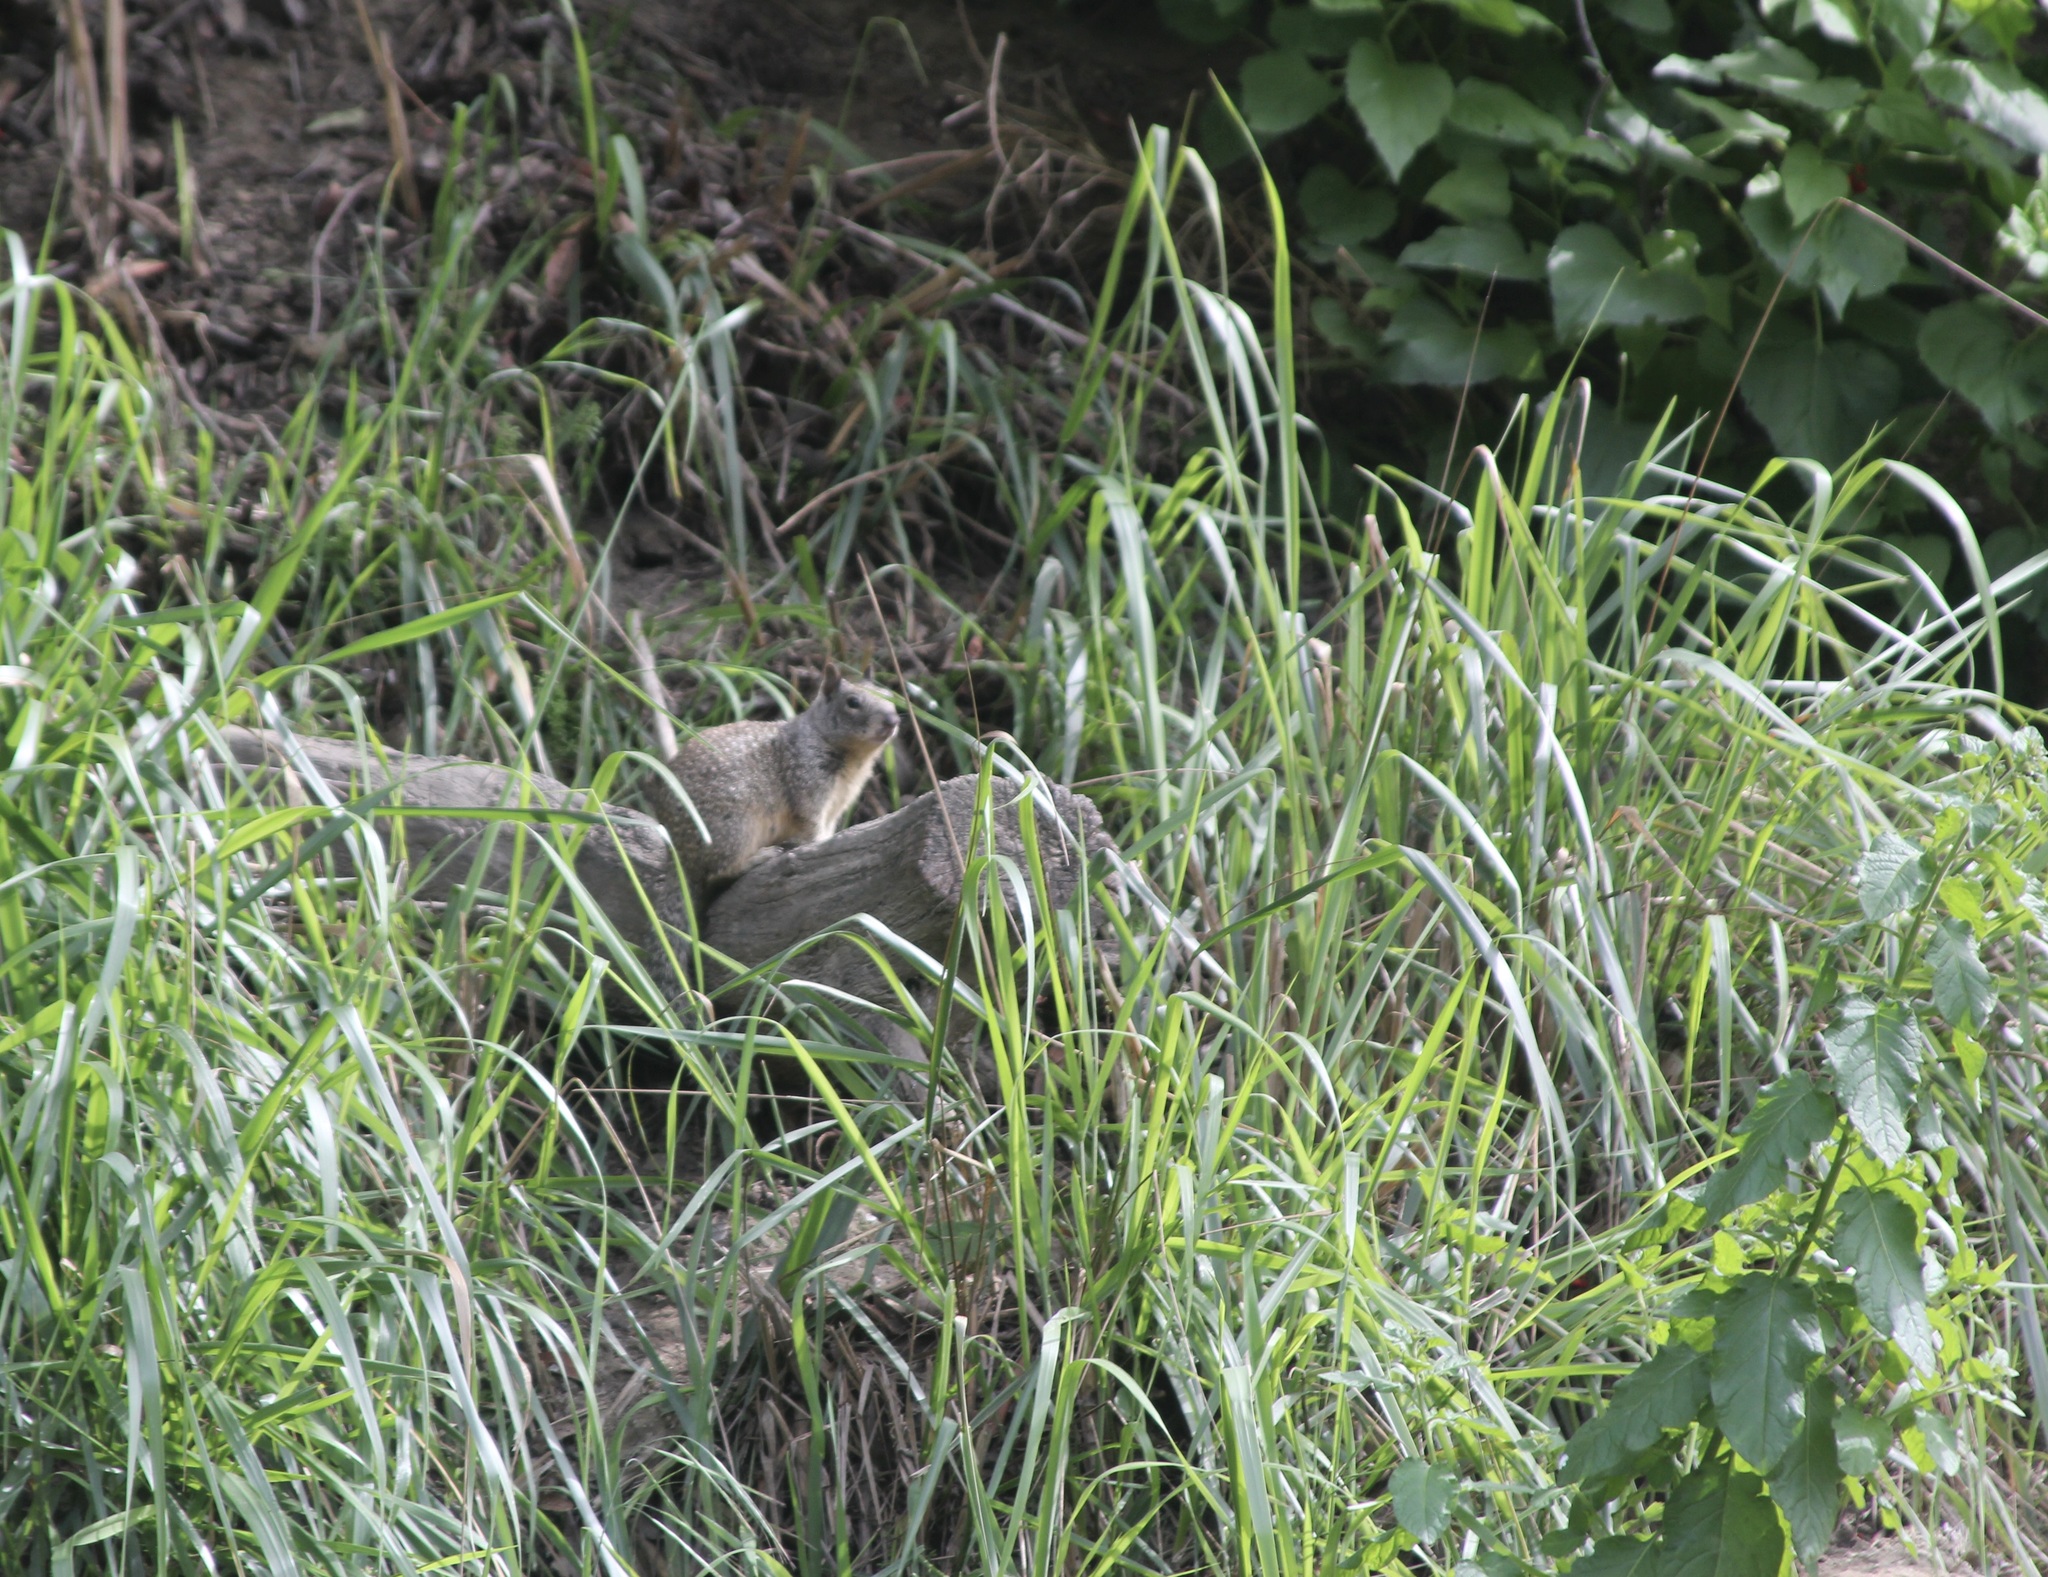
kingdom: Animalia
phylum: Chordata
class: Mammalia
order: Rodentia
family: Sciuridae
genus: Otospermophilus
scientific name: Otospermophilus beecheyi
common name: California ground squirrel
